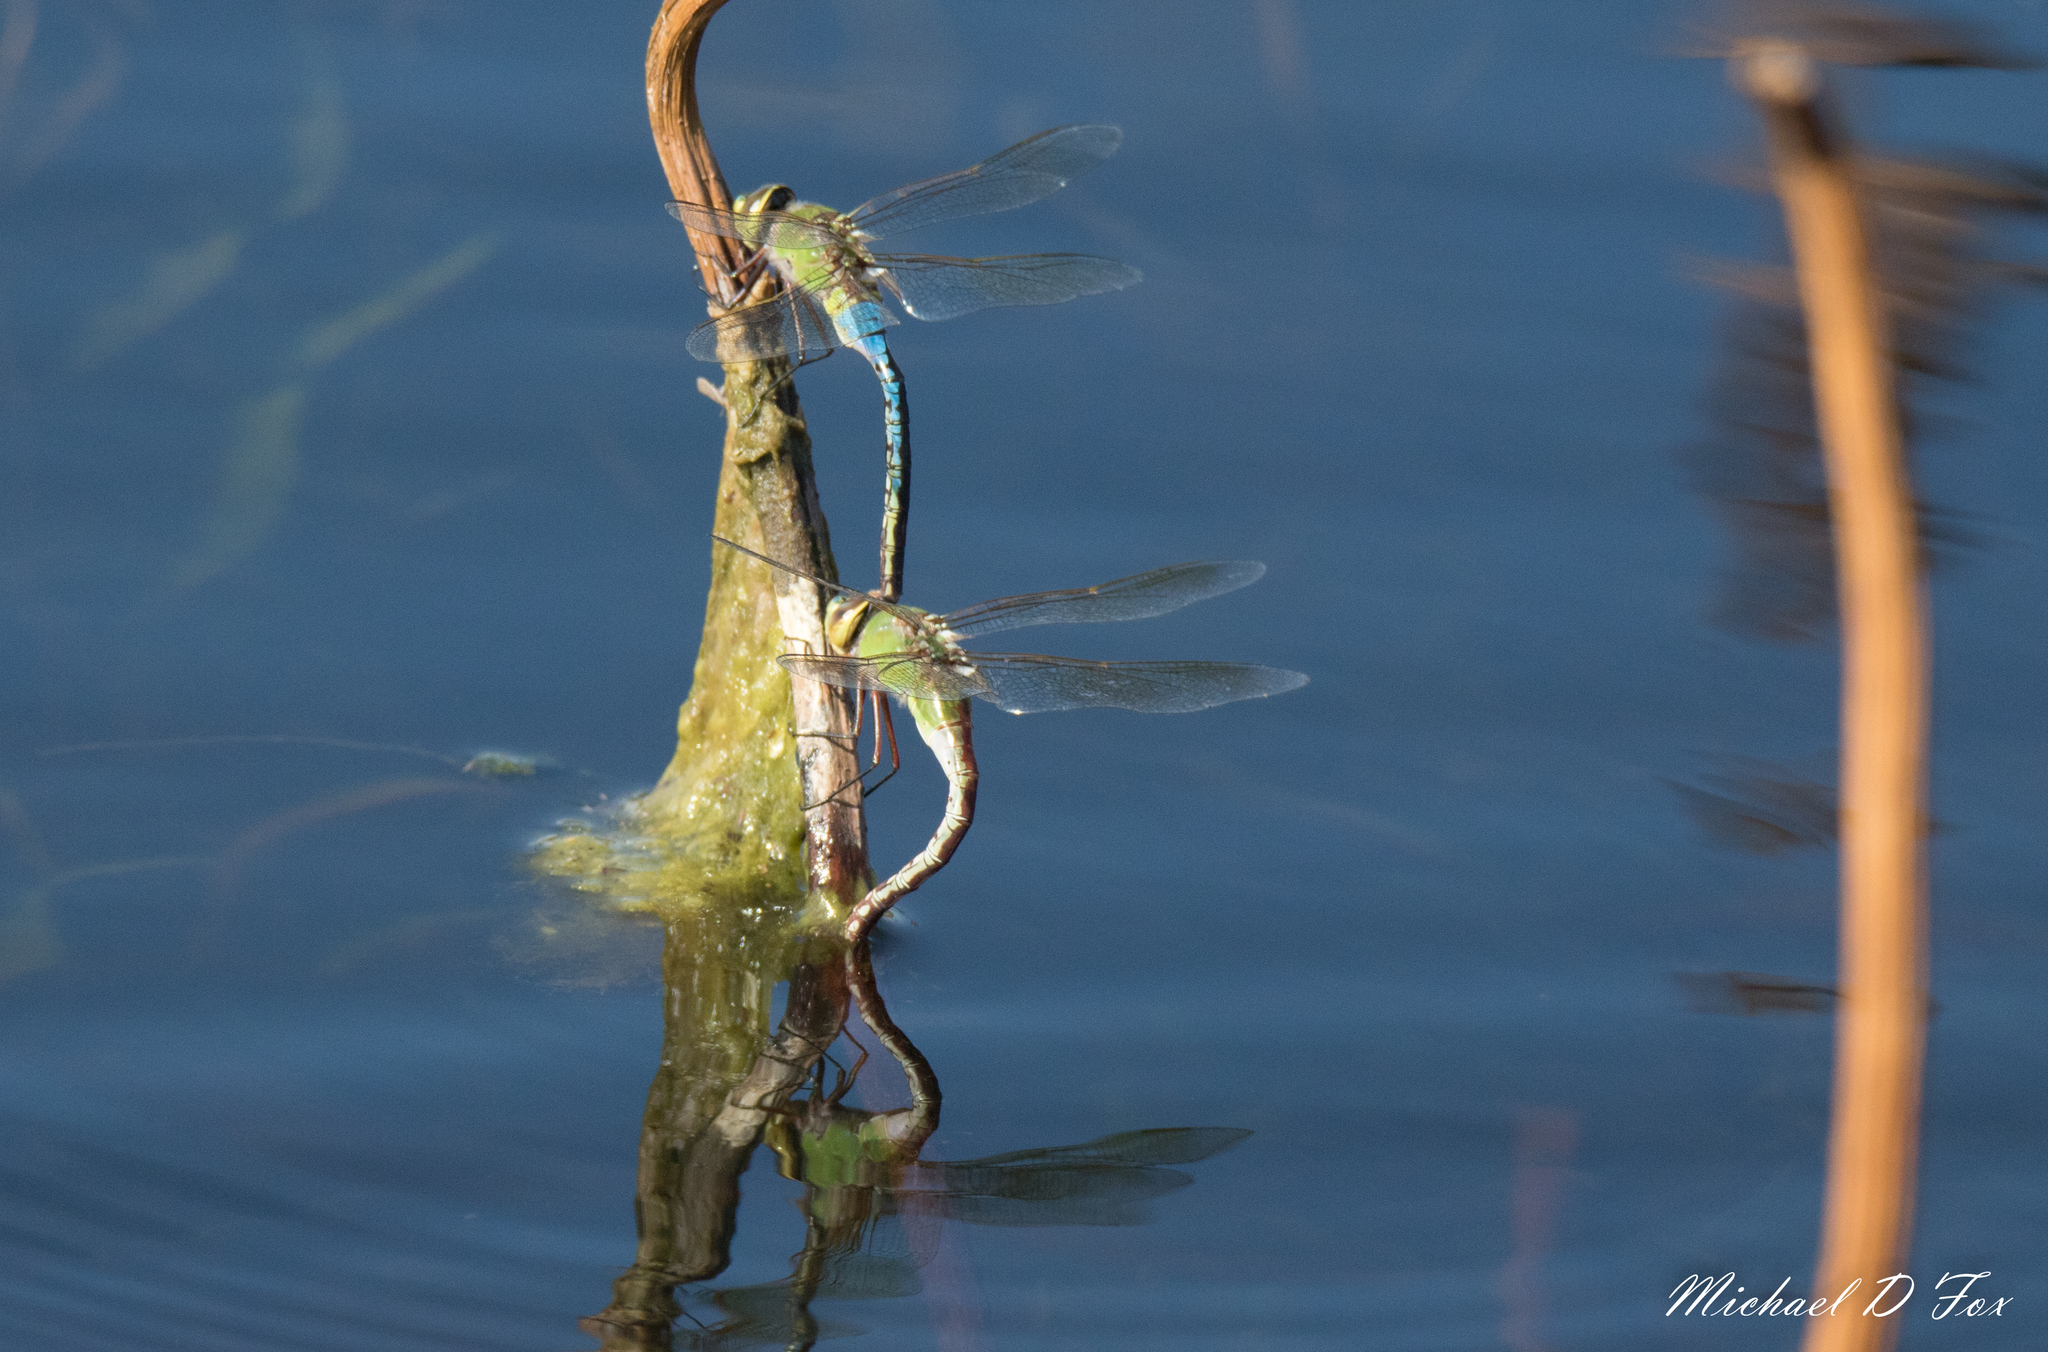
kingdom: Animalia
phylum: Arthropoda
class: Insecta
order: Odonata
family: Aeshnidae
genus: Anax
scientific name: Anax junius
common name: Common green darner
